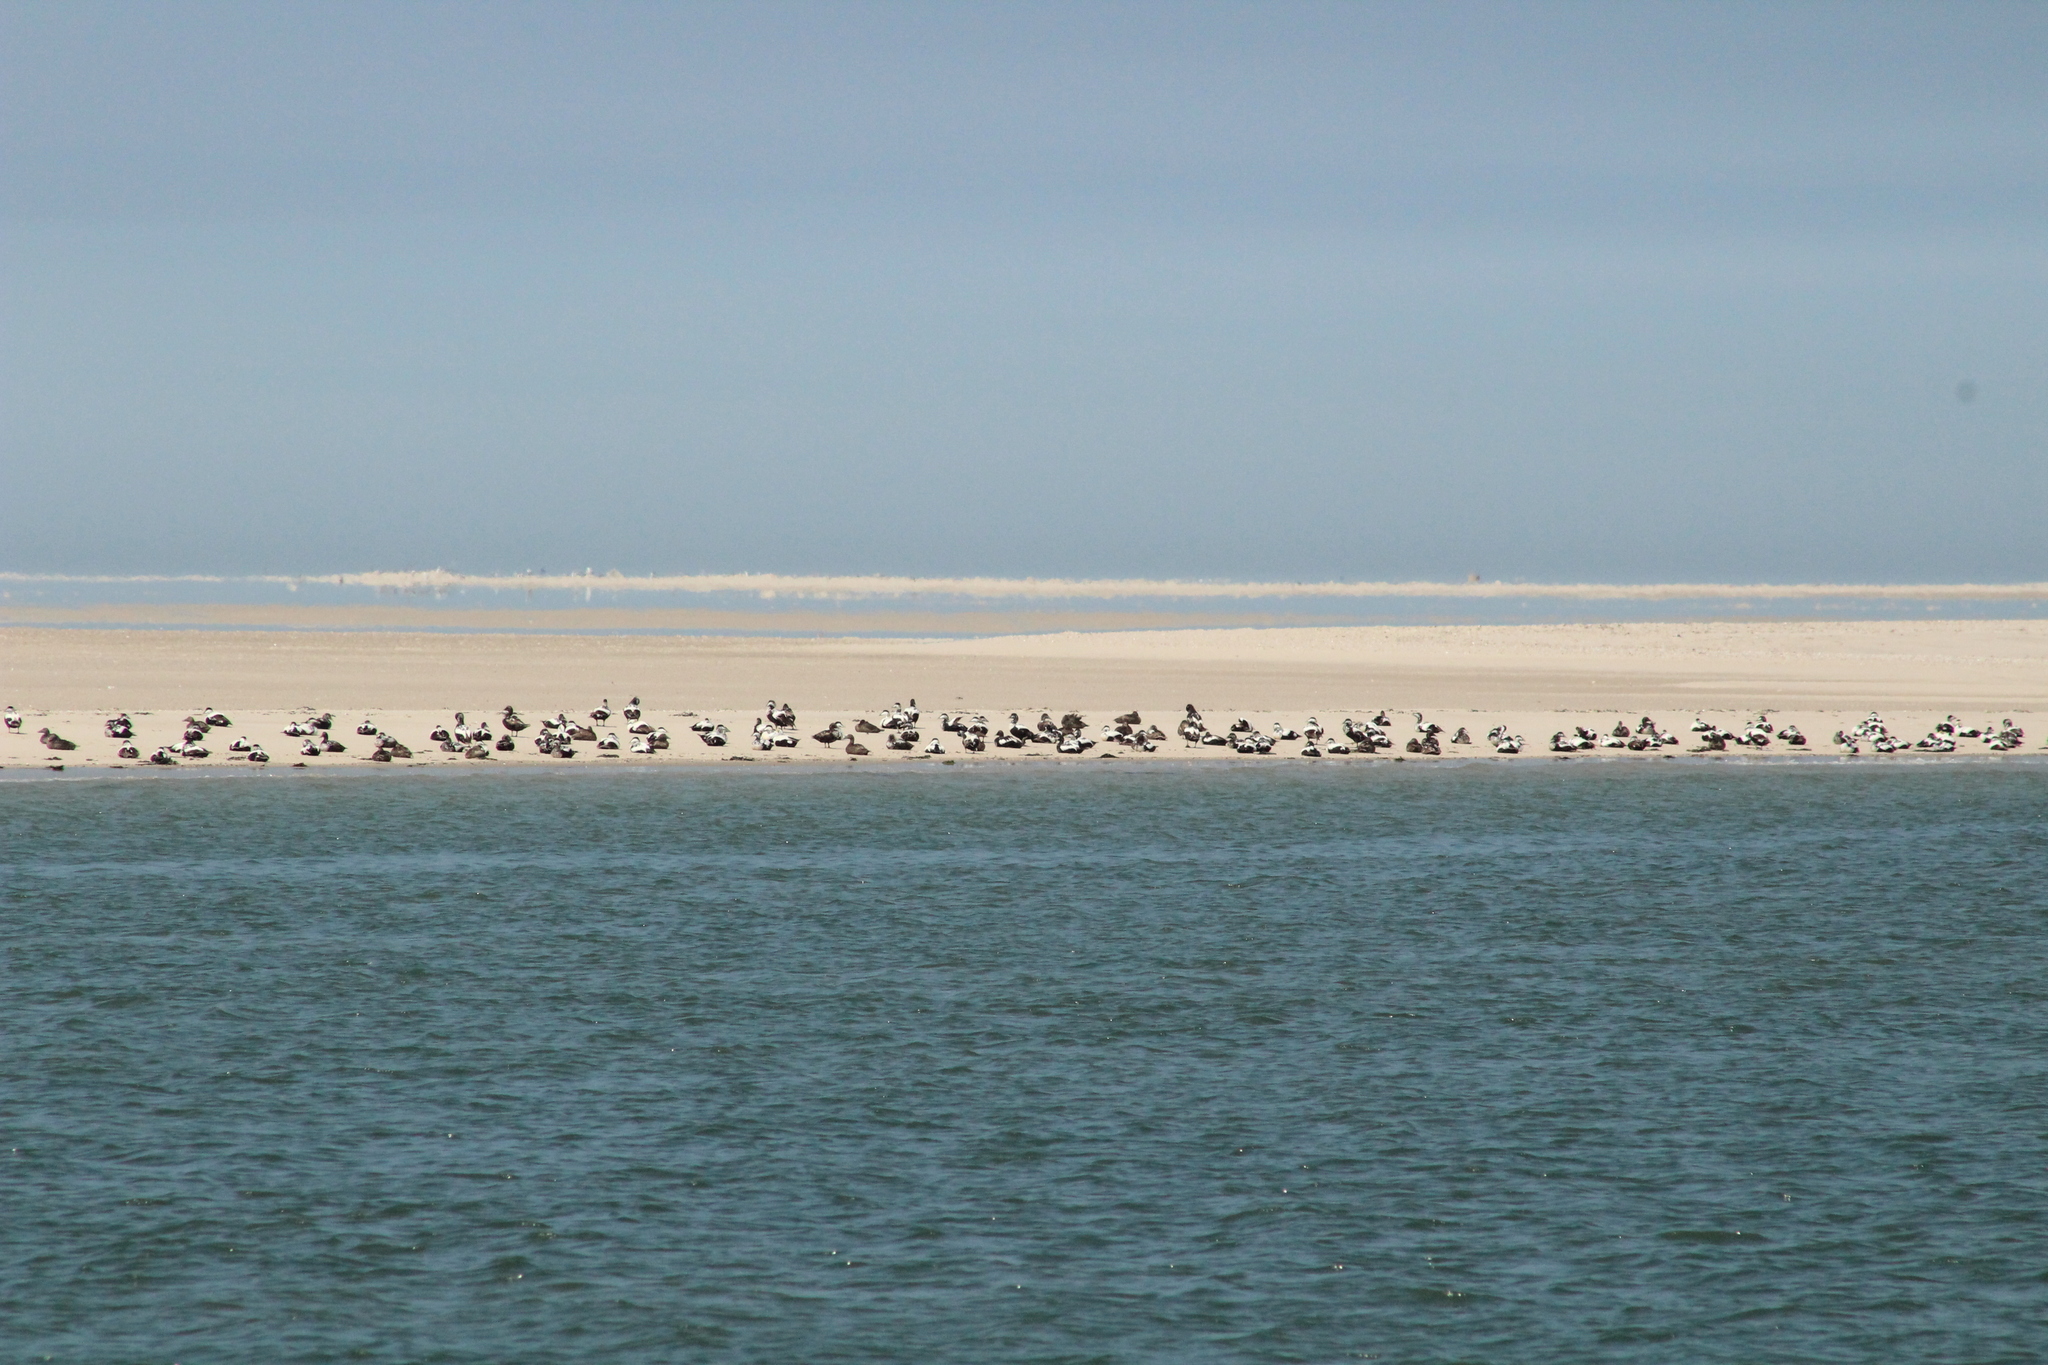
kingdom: Animalia
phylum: Chordata
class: Aves
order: Anseriformes
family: Anatidae
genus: Somateria
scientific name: Somateria mollissima
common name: Common eider
